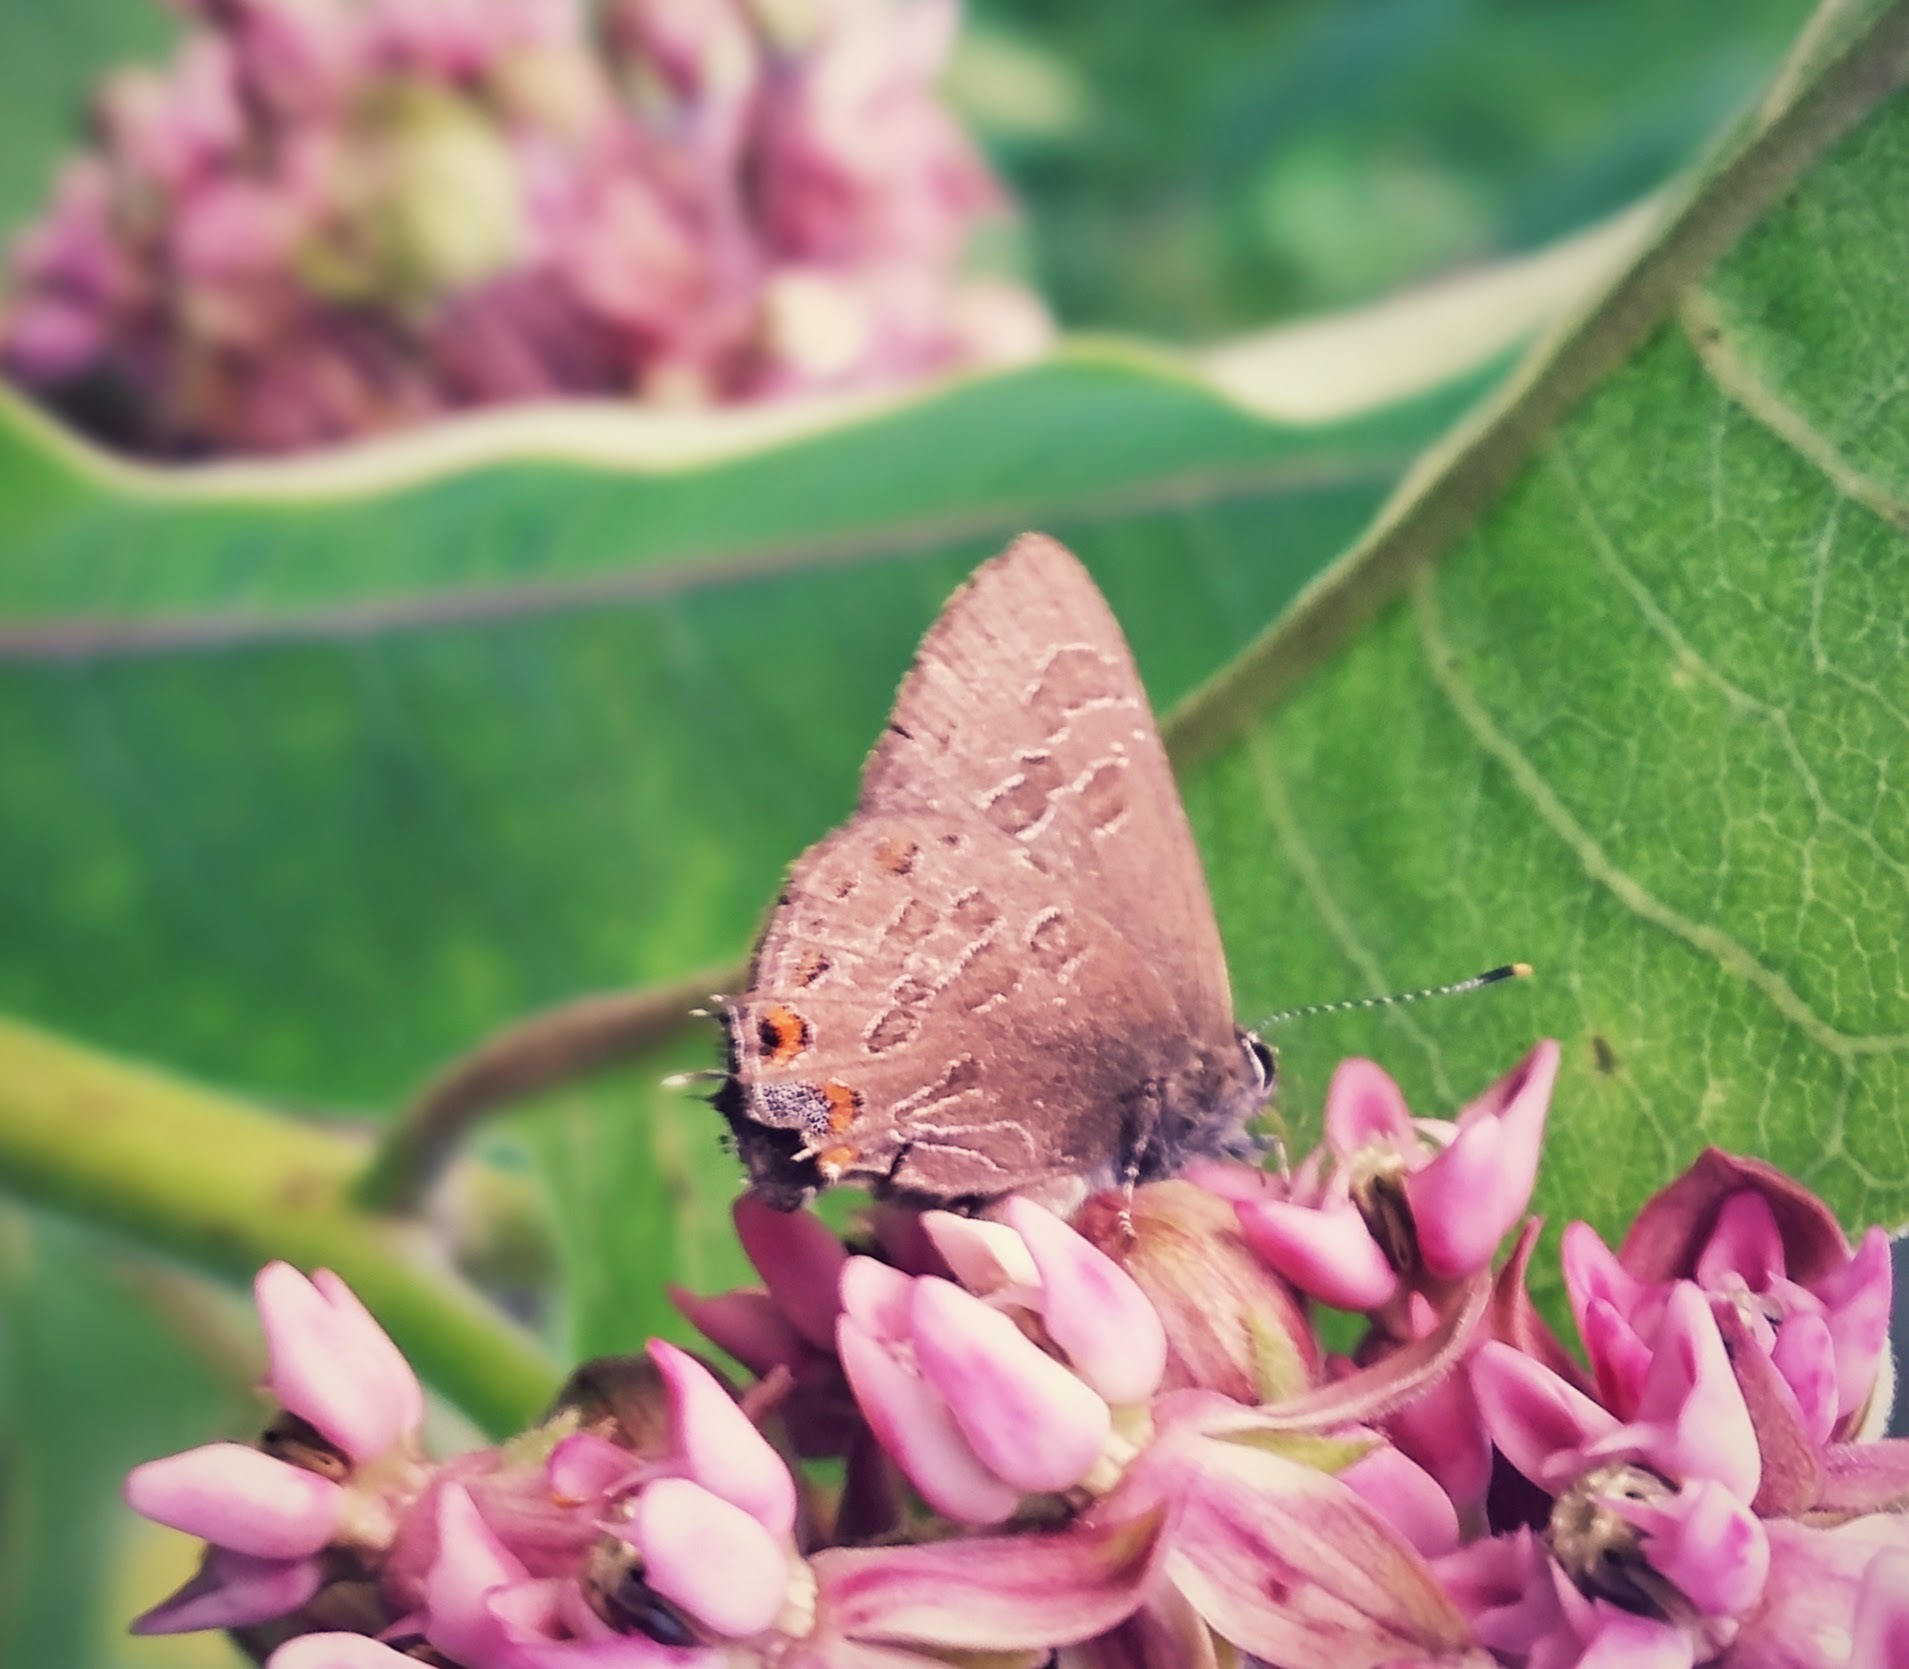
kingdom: Animalia
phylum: Arthropoda
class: Insecta
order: Lepidoptera
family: Lycaenidae
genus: Satyrium
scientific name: Satyrium liparops
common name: Striped hairstreak
